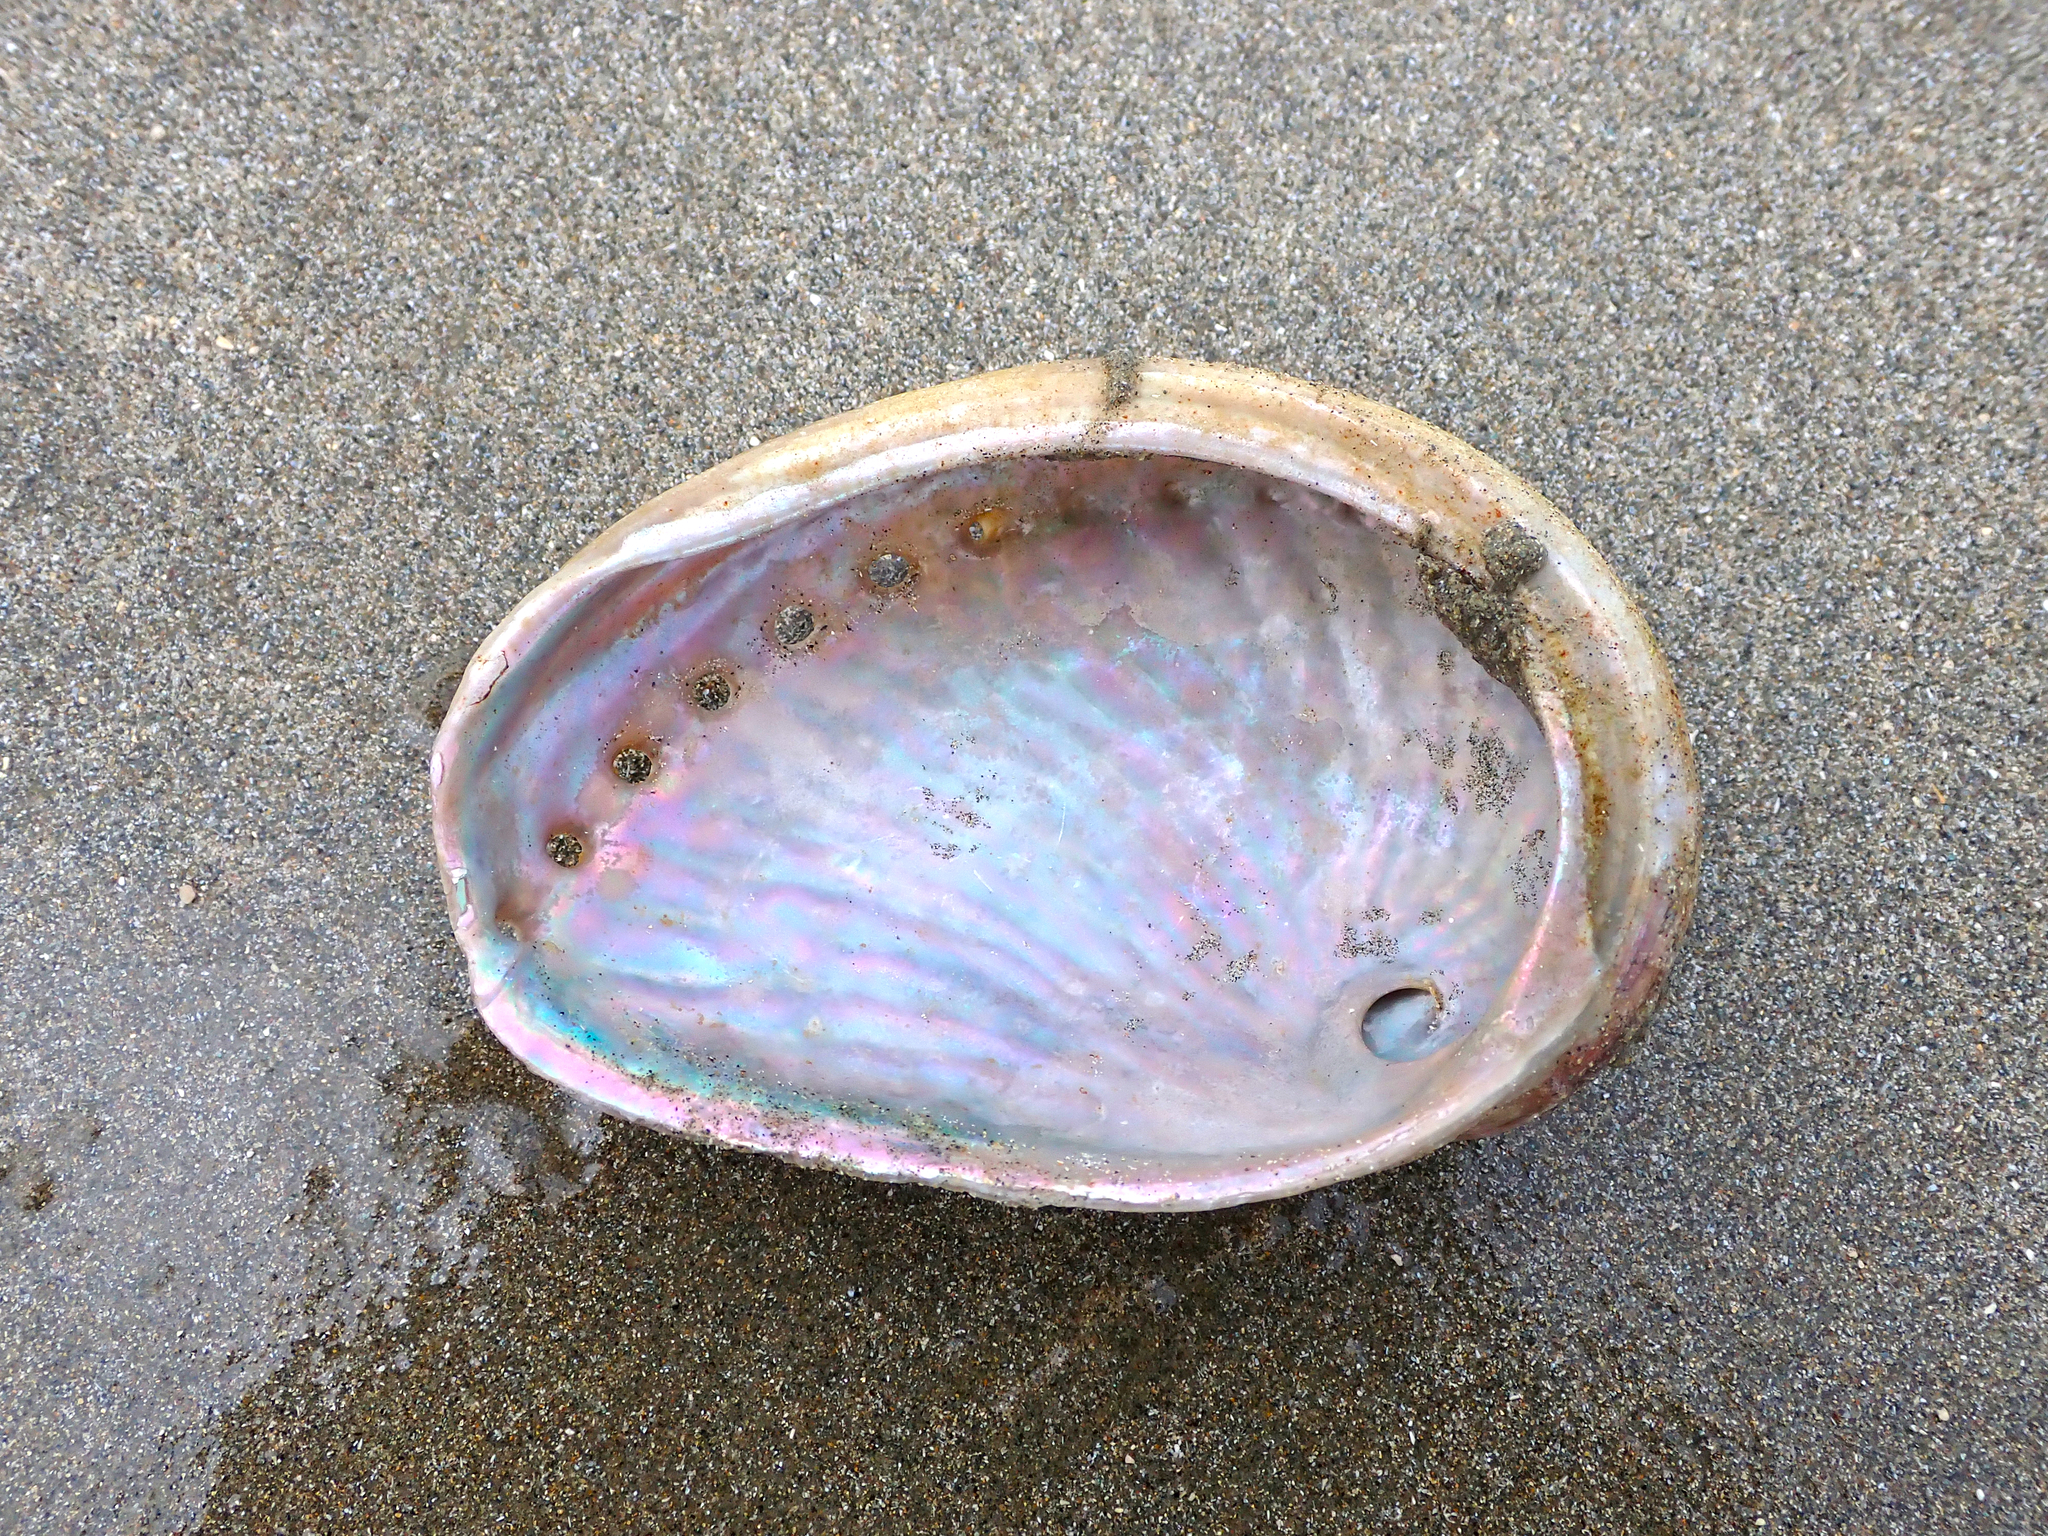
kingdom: Animalia
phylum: Mollusca
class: Gastropoda
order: Lepetellida
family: Haliotidae
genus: Haliotis
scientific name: Haliotis australis
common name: Silver abalone
